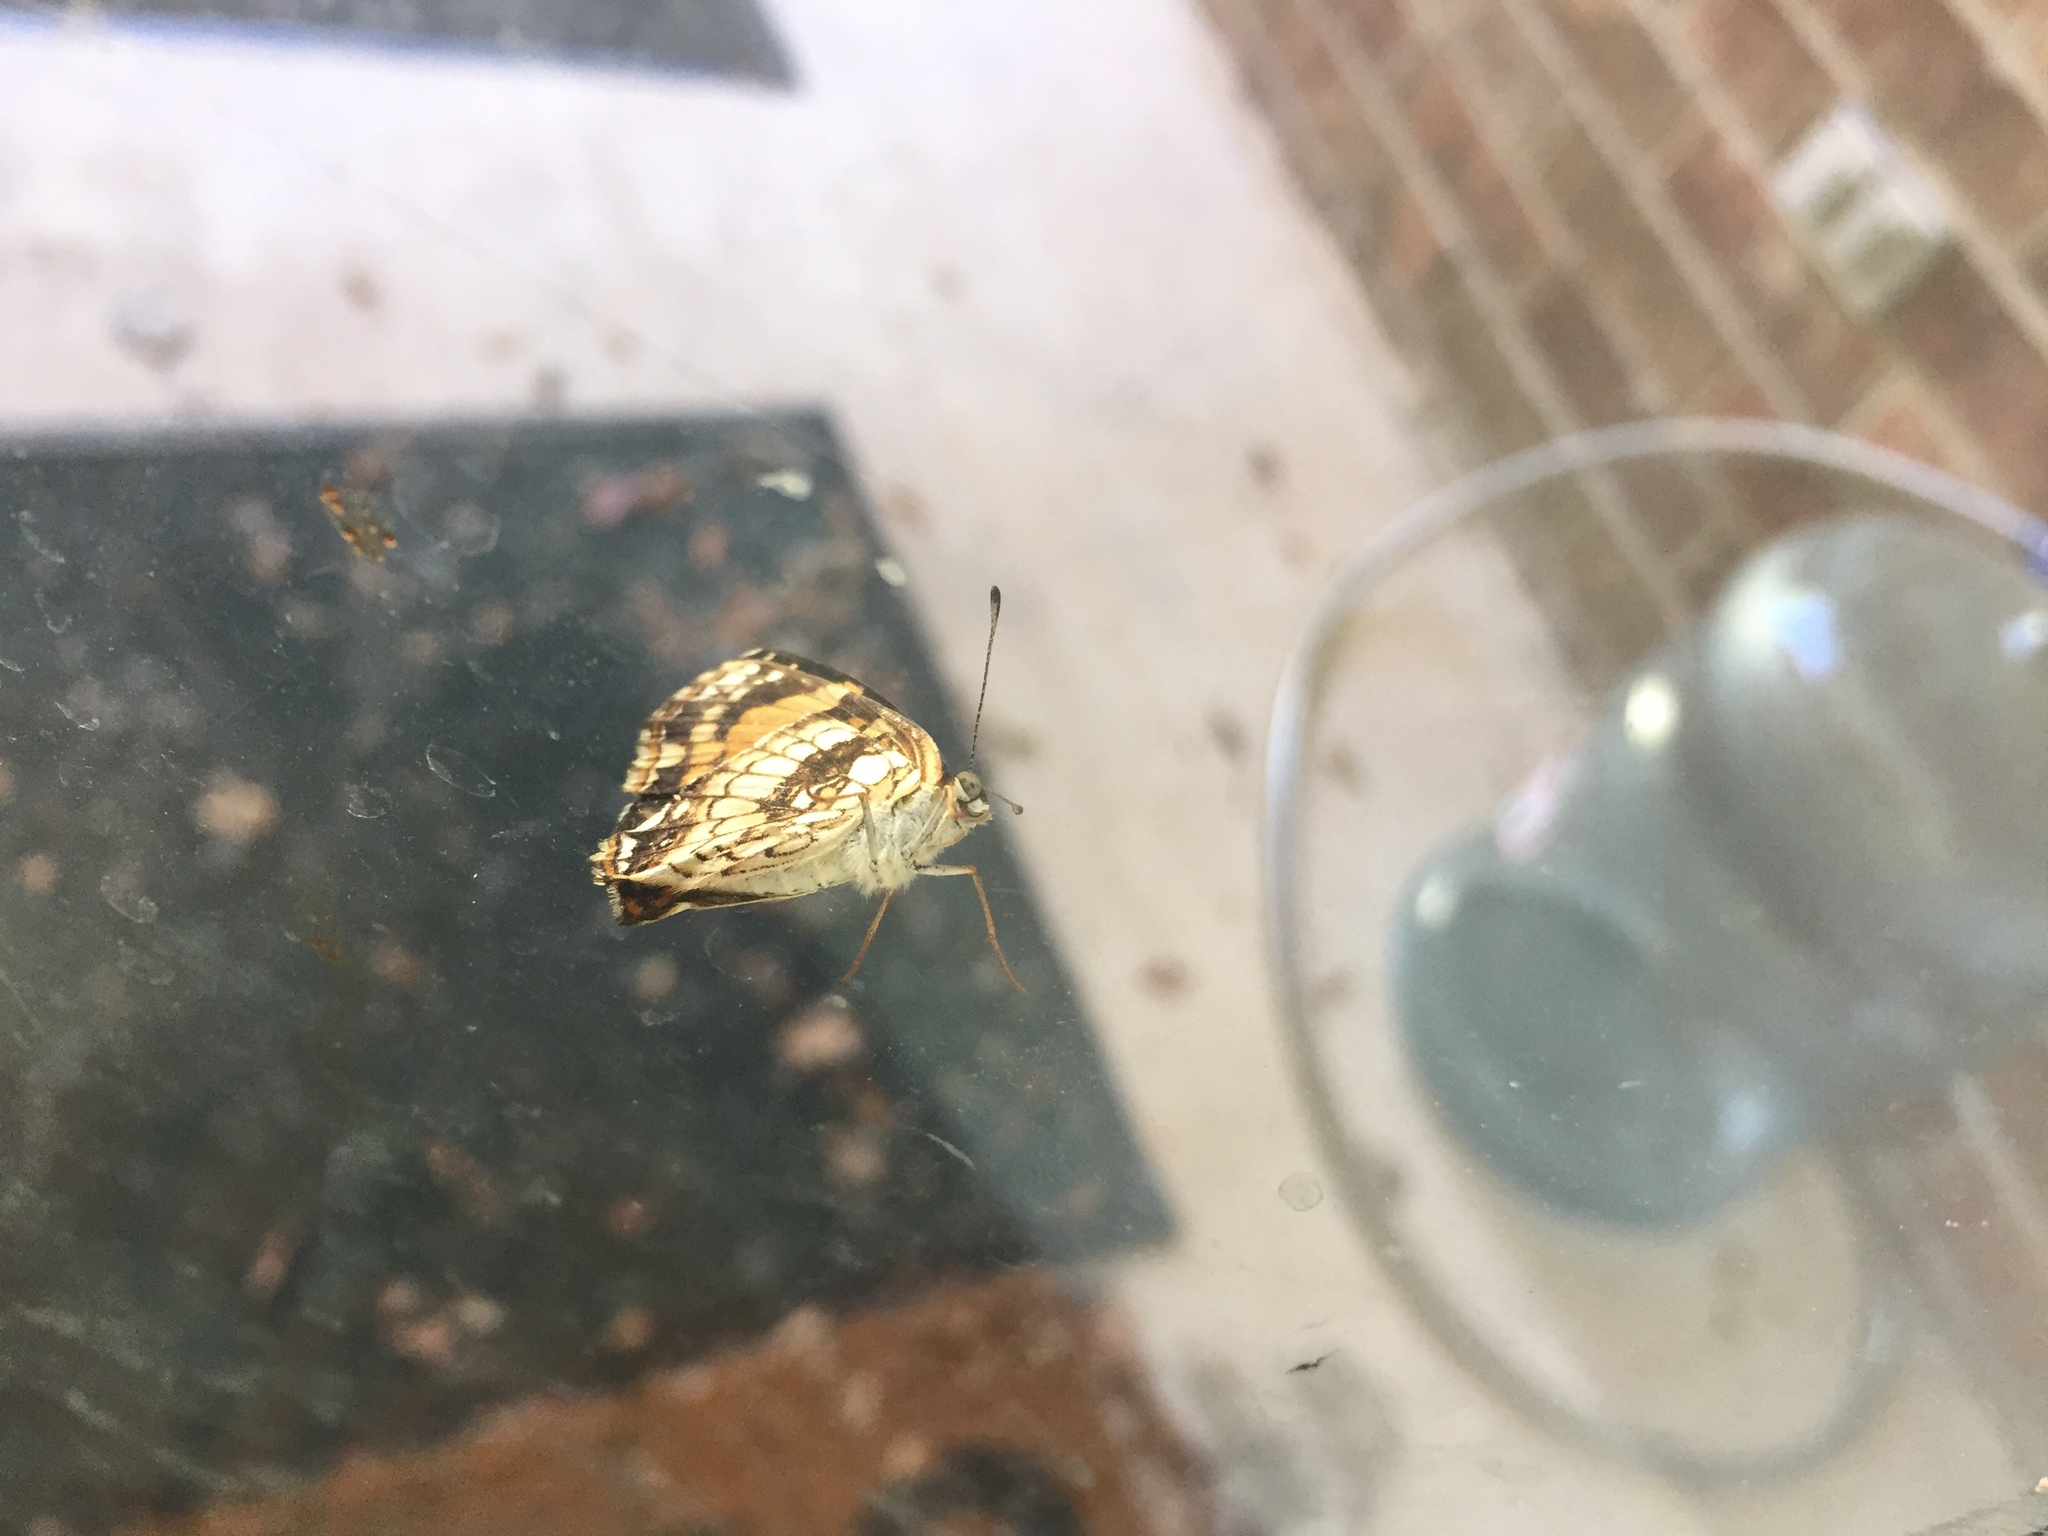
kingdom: Animalia
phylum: Arthropoda
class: Insecta
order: Lepidoptera
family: Nymphalidae
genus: Chlosyne
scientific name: Chlosyne nycteis
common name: Silvery checkerspot
